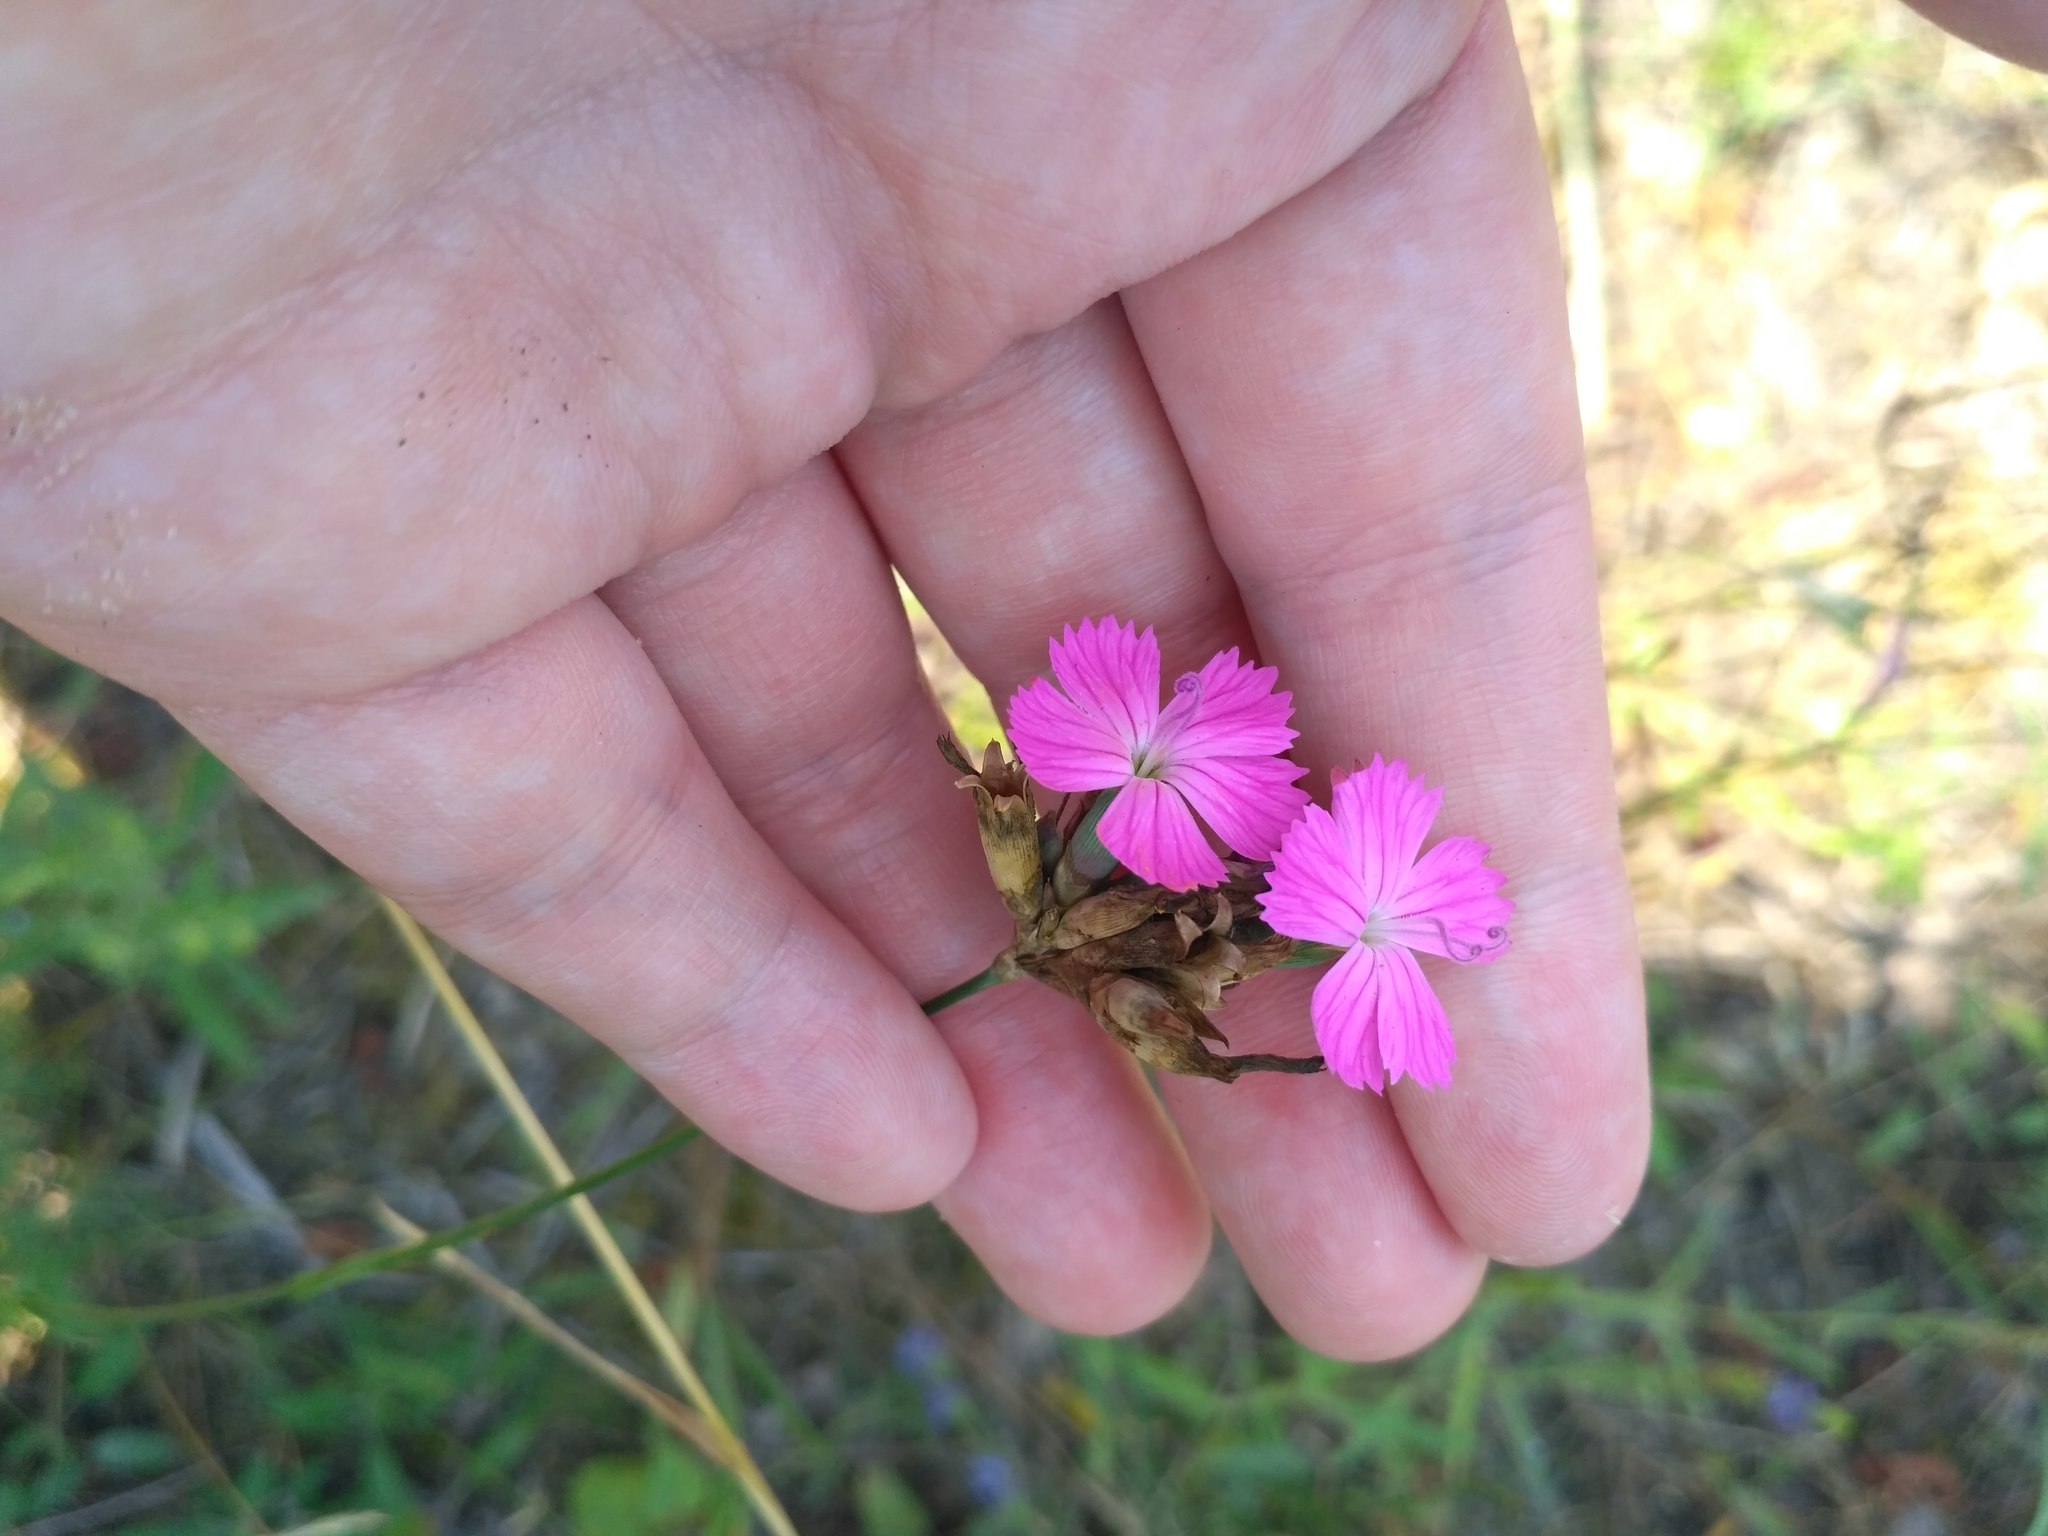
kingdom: Plantae
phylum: Tracheophyta
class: Magnoliopsida
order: Caryophyllales
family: Caryophyllaceae
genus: Dianthus
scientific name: Dianthus borbasii
